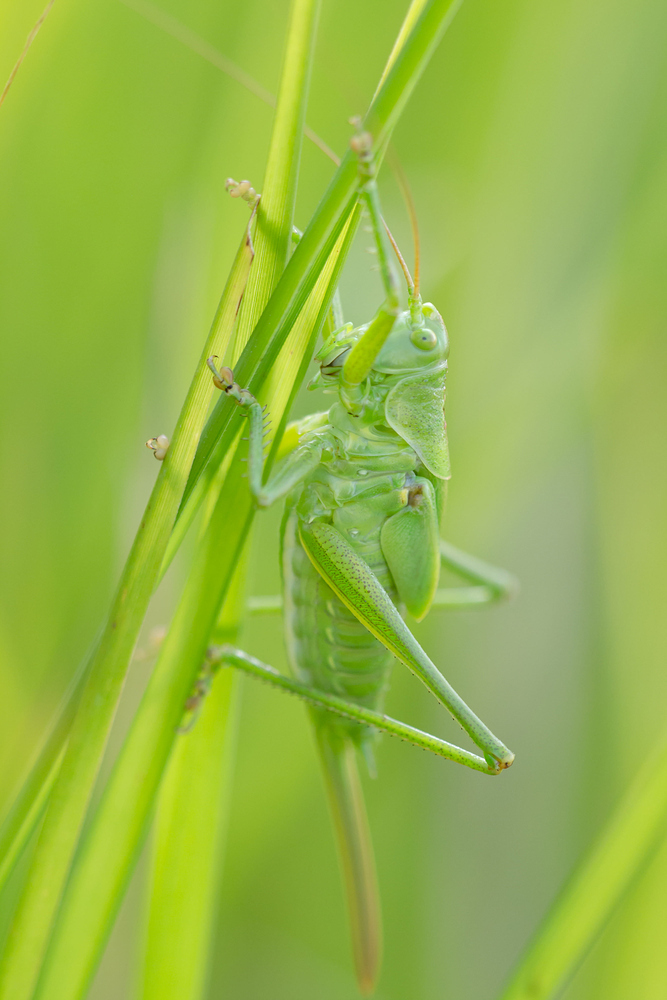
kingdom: Animalia
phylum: Arthropoda
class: Insecta
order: Orthoptera
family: Tettigoniidae
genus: Tettigonia
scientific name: Tettigonia viridissima
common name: Great green bush-cricket
